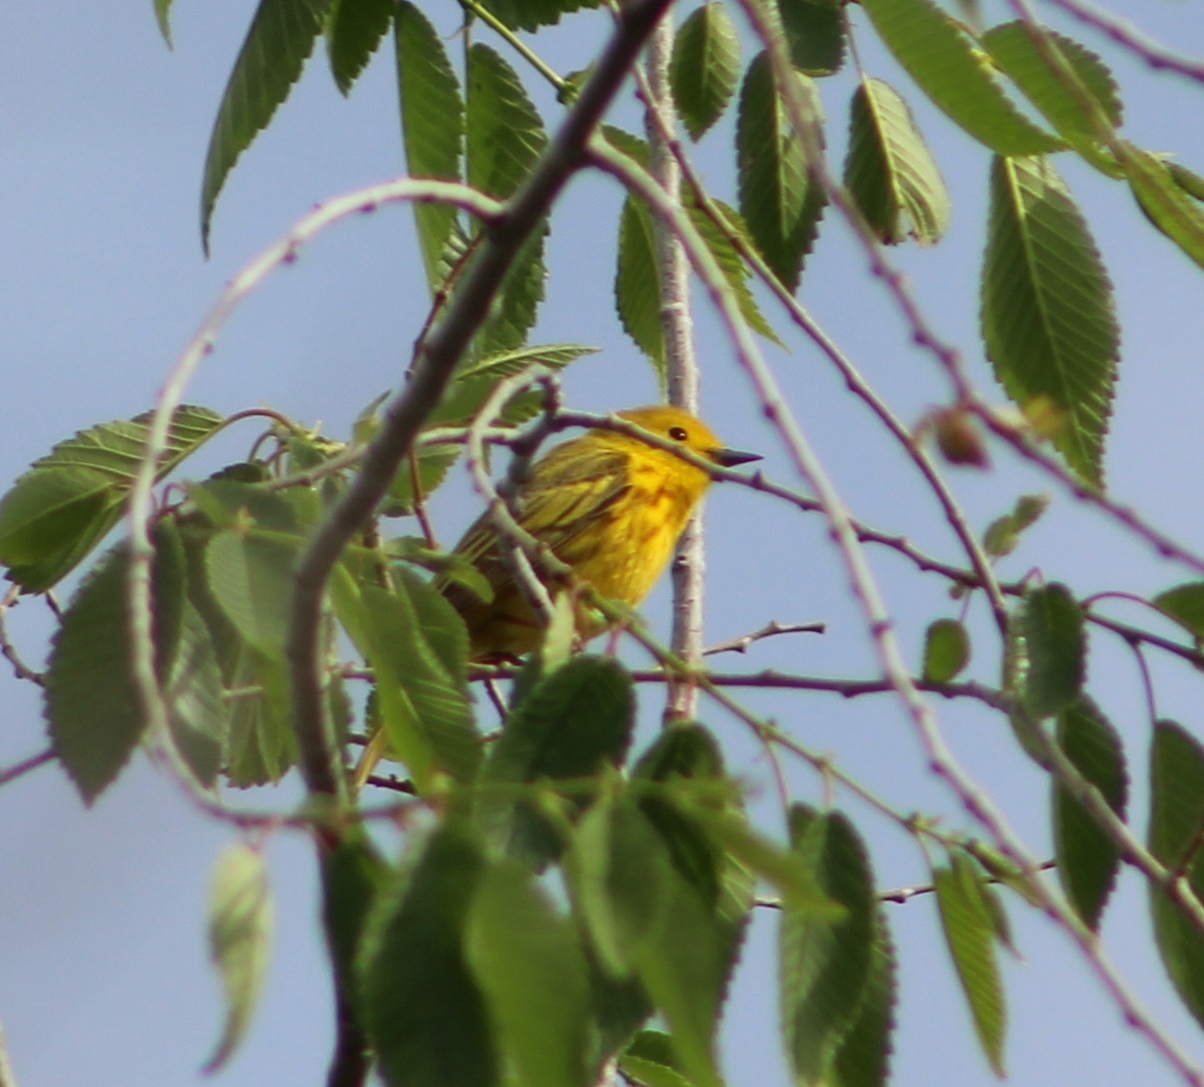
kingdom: Animalia
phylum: Chordata
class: Aves
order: Passeriformes
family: Parulidae
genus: Setophaga
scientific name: Setophaga petechia
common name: Yellow warbler
